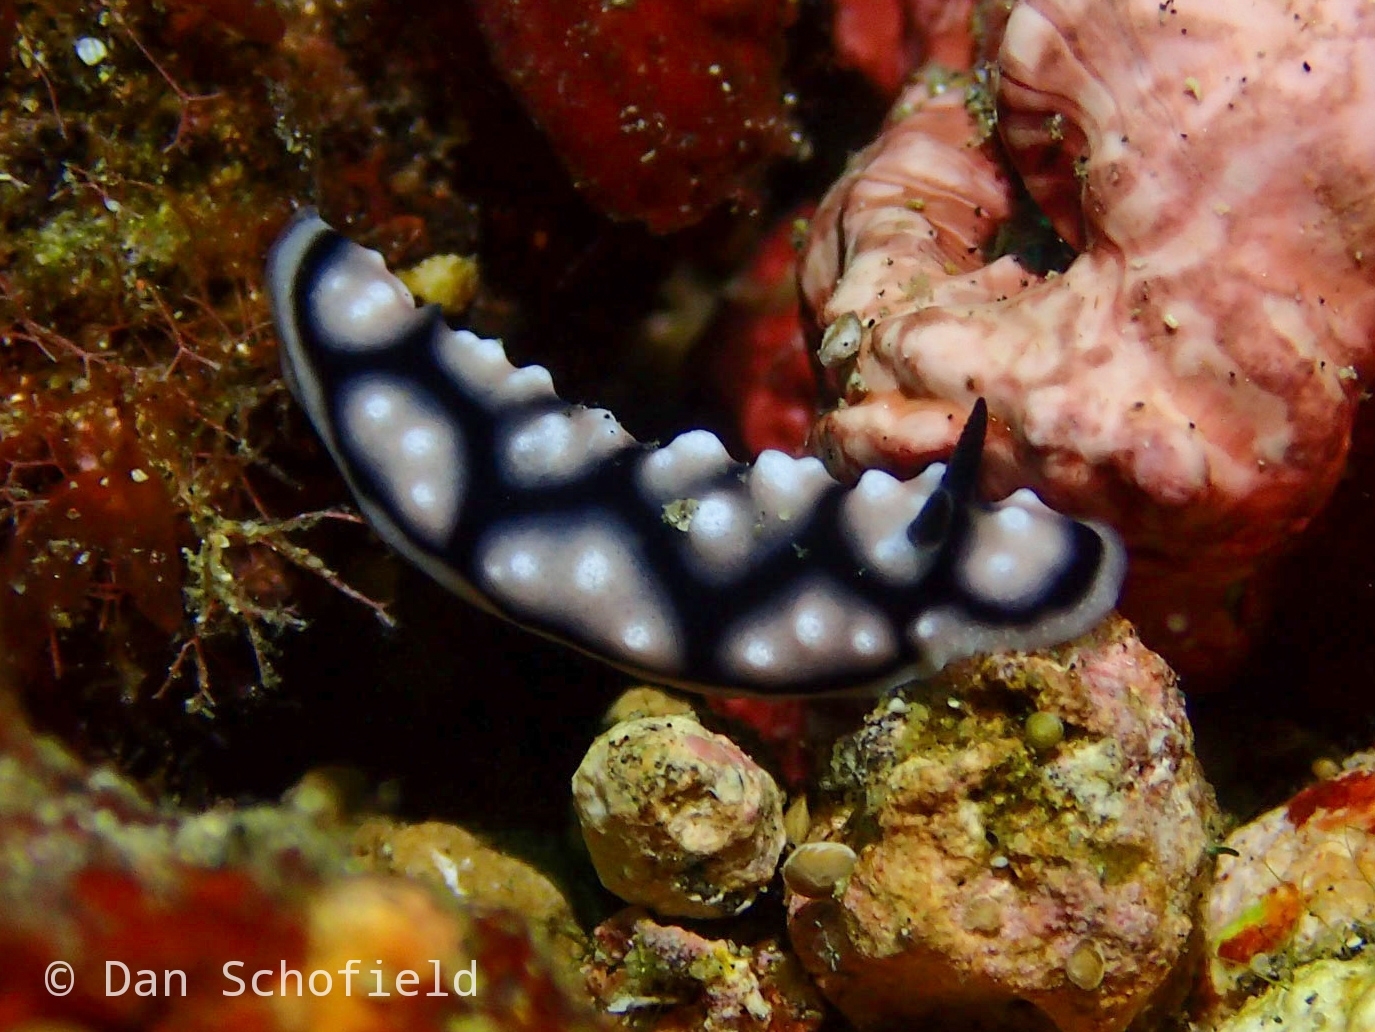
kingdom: Animalia
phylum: Mollusca
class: Gastropoda
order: Nudibranchia
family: Phyllidiidae
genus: Phyllidiella
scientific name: Phyllidiella pustulosa
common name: Pustular phyllidia
